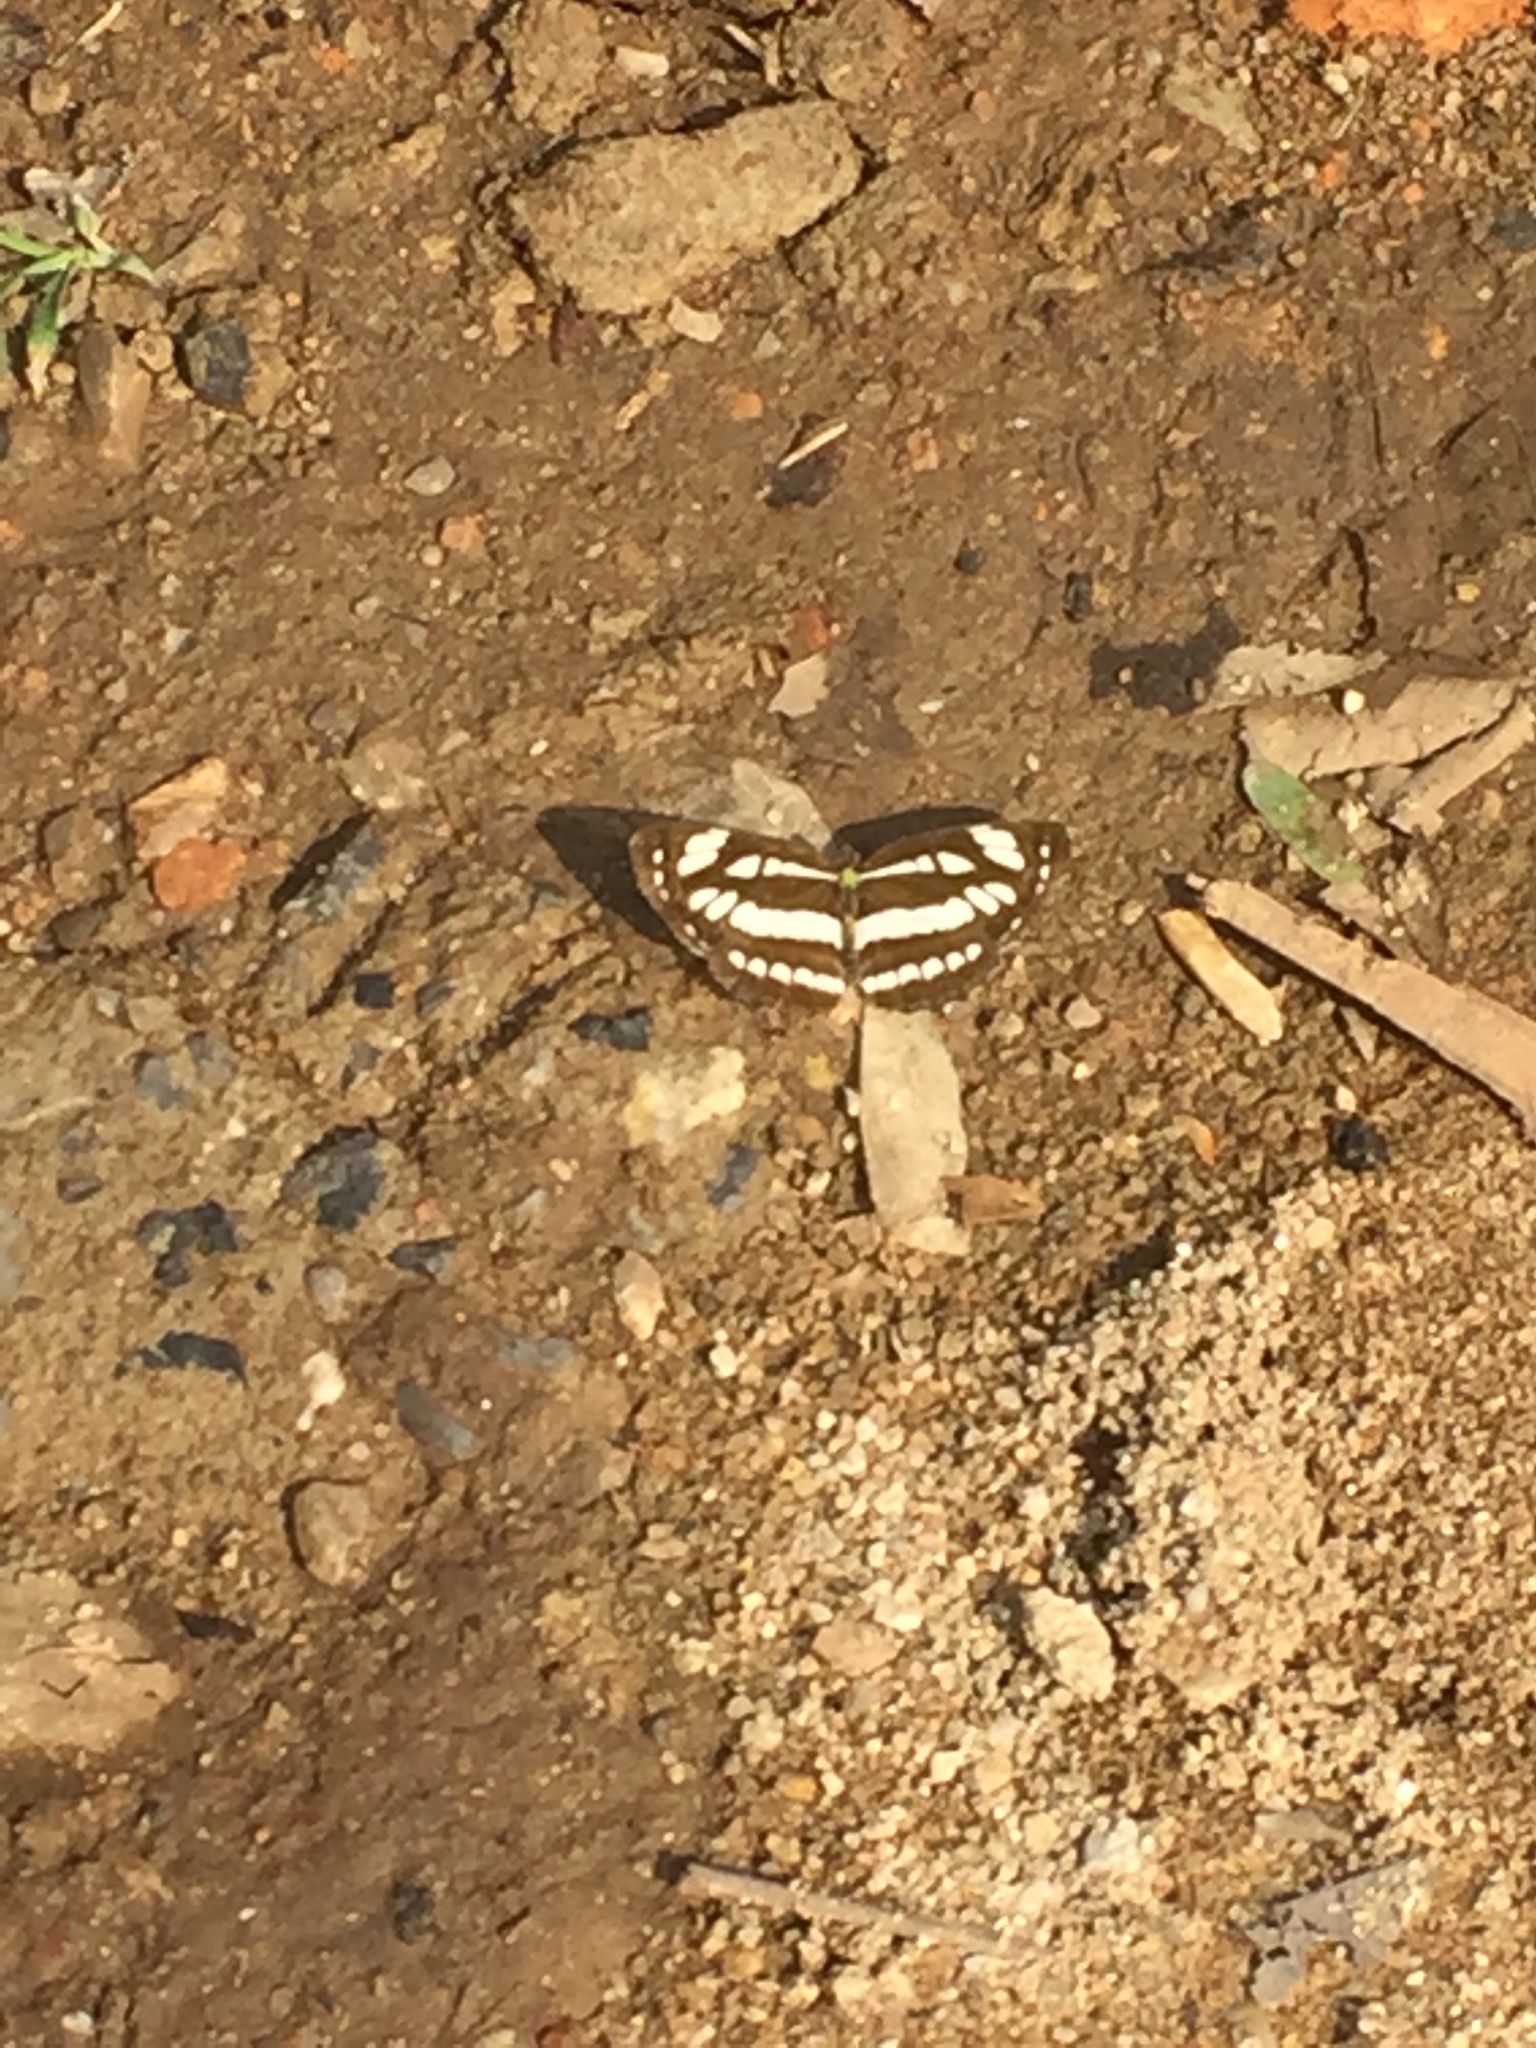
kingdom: Animalia
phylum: Arthropoda
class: Insecta
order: Lepidoptera
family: Nymphalidae
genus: Neptis
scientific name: Neptis hylas
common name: Common sailer
